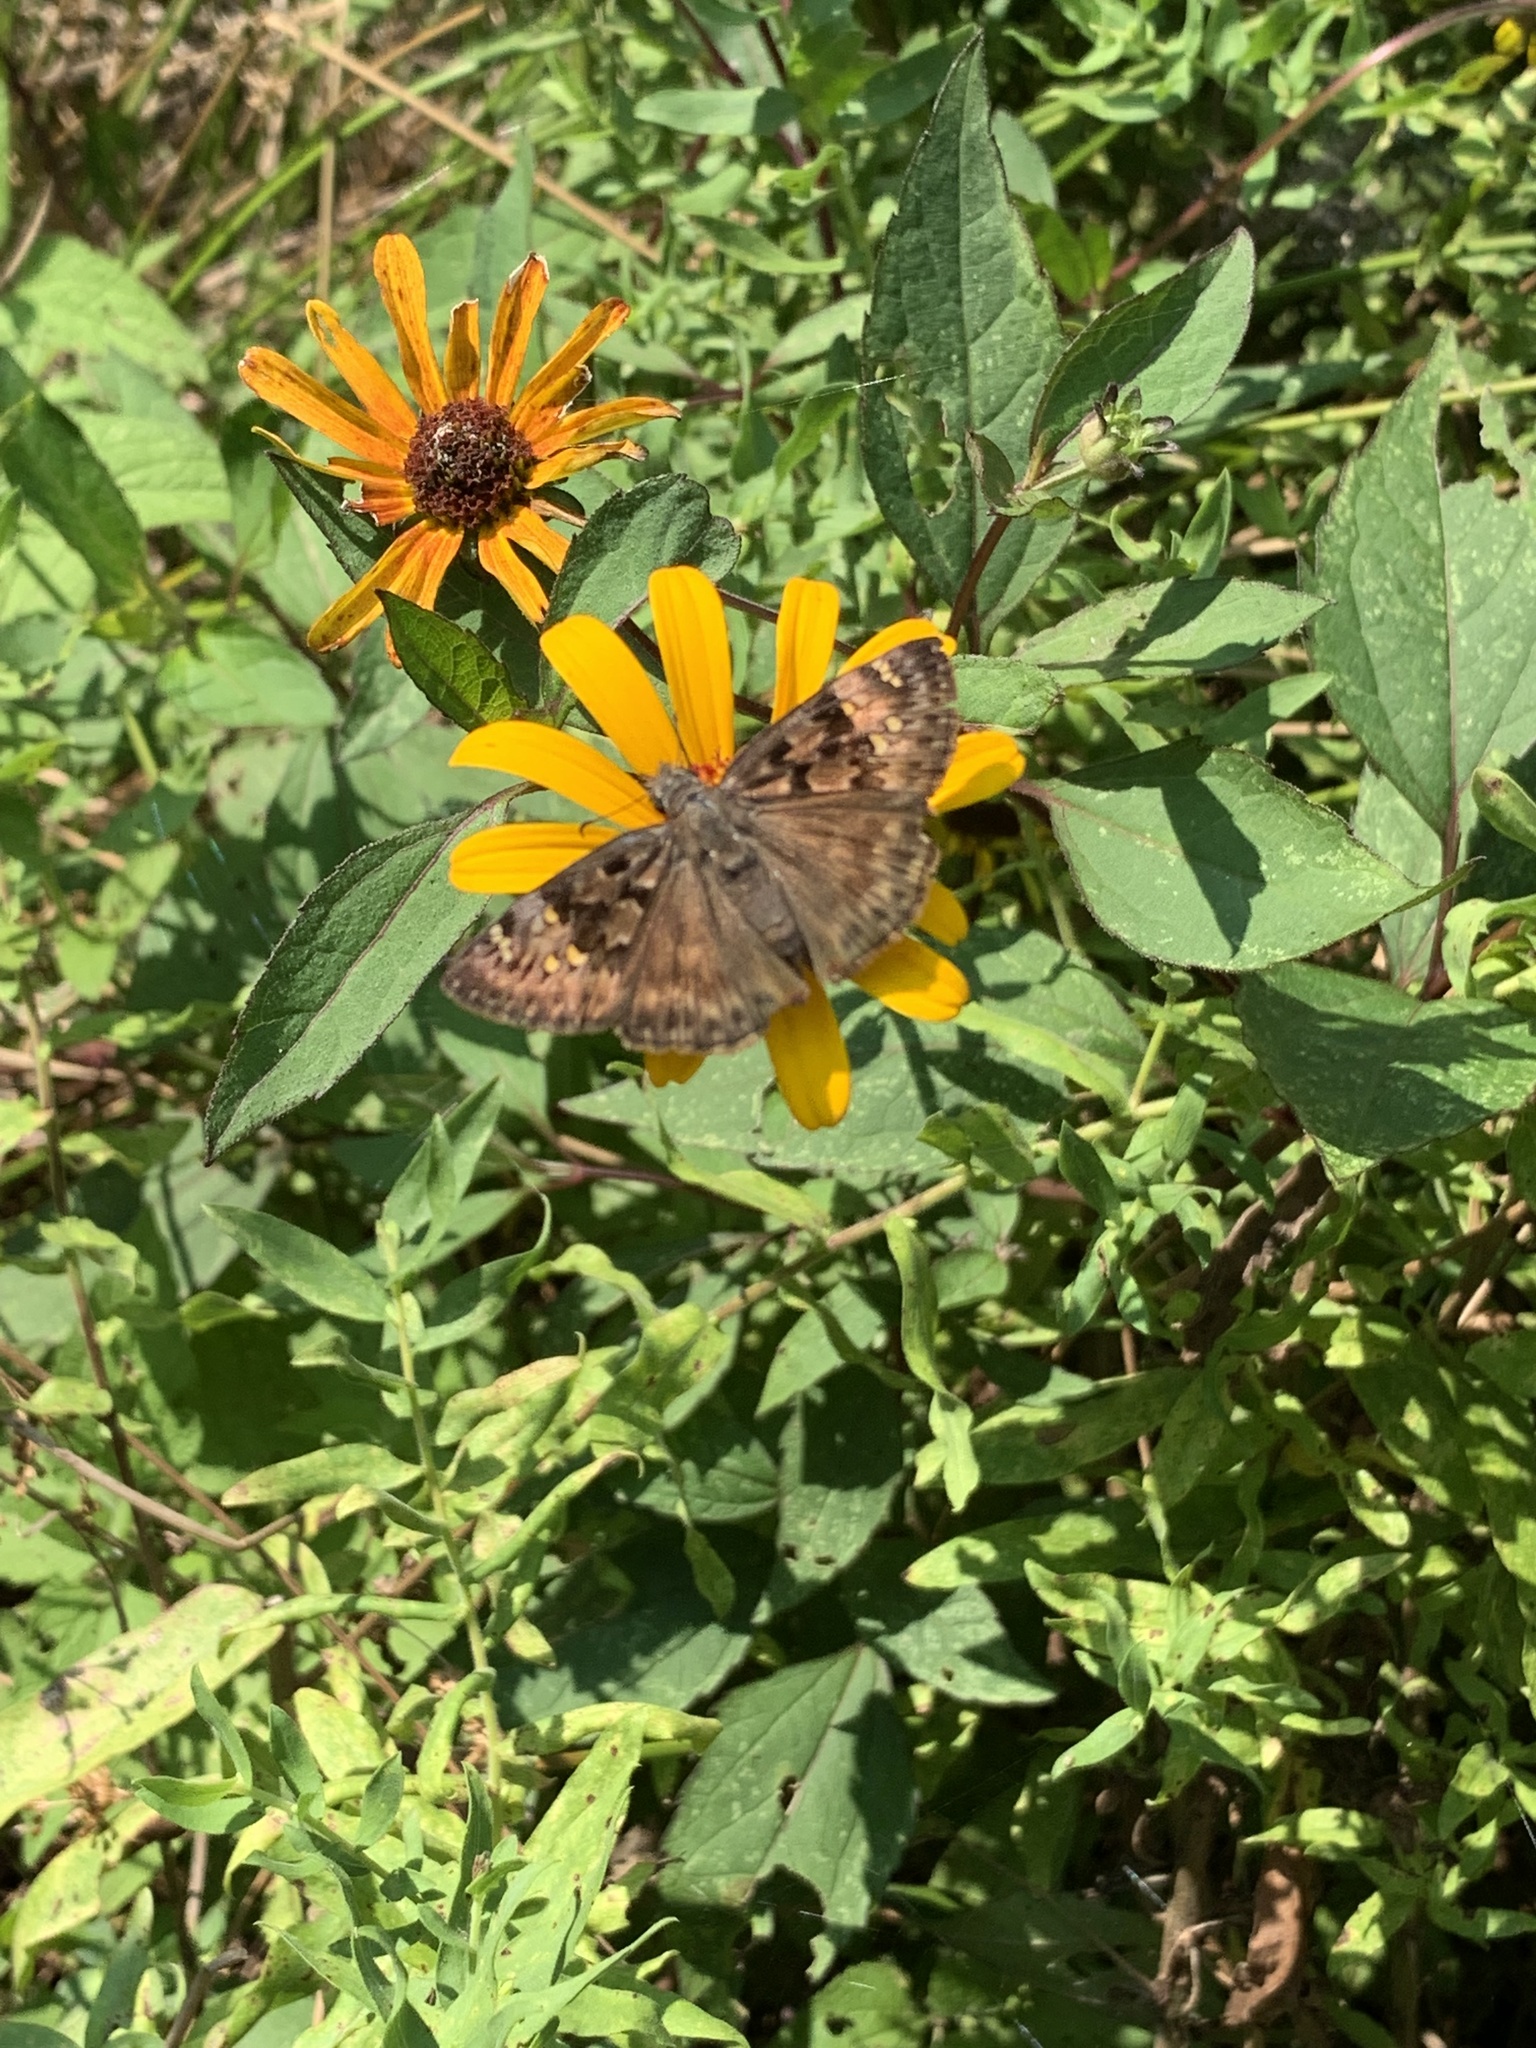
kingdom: Animalia
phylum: Arthropoda
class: Insecta
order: Lepidoptera
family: Hesperiidae
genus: Erynnis
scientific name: Erynnis horatius
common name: Horace's duskywing
